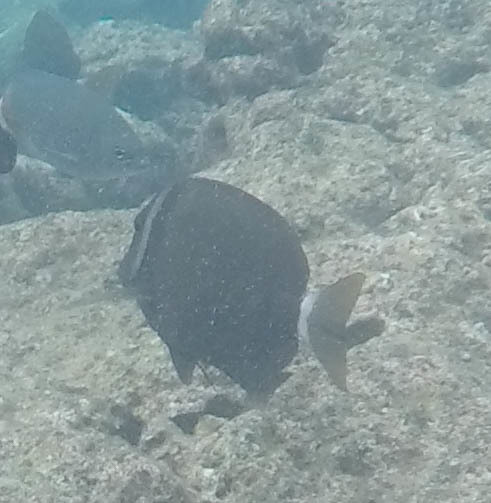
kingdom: Animalia
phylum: Chordata
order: Perciformes
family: Acanthuridae
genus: Acanthurus
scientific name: Acanthurus leucopareius
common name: Head-band surgeonfish
